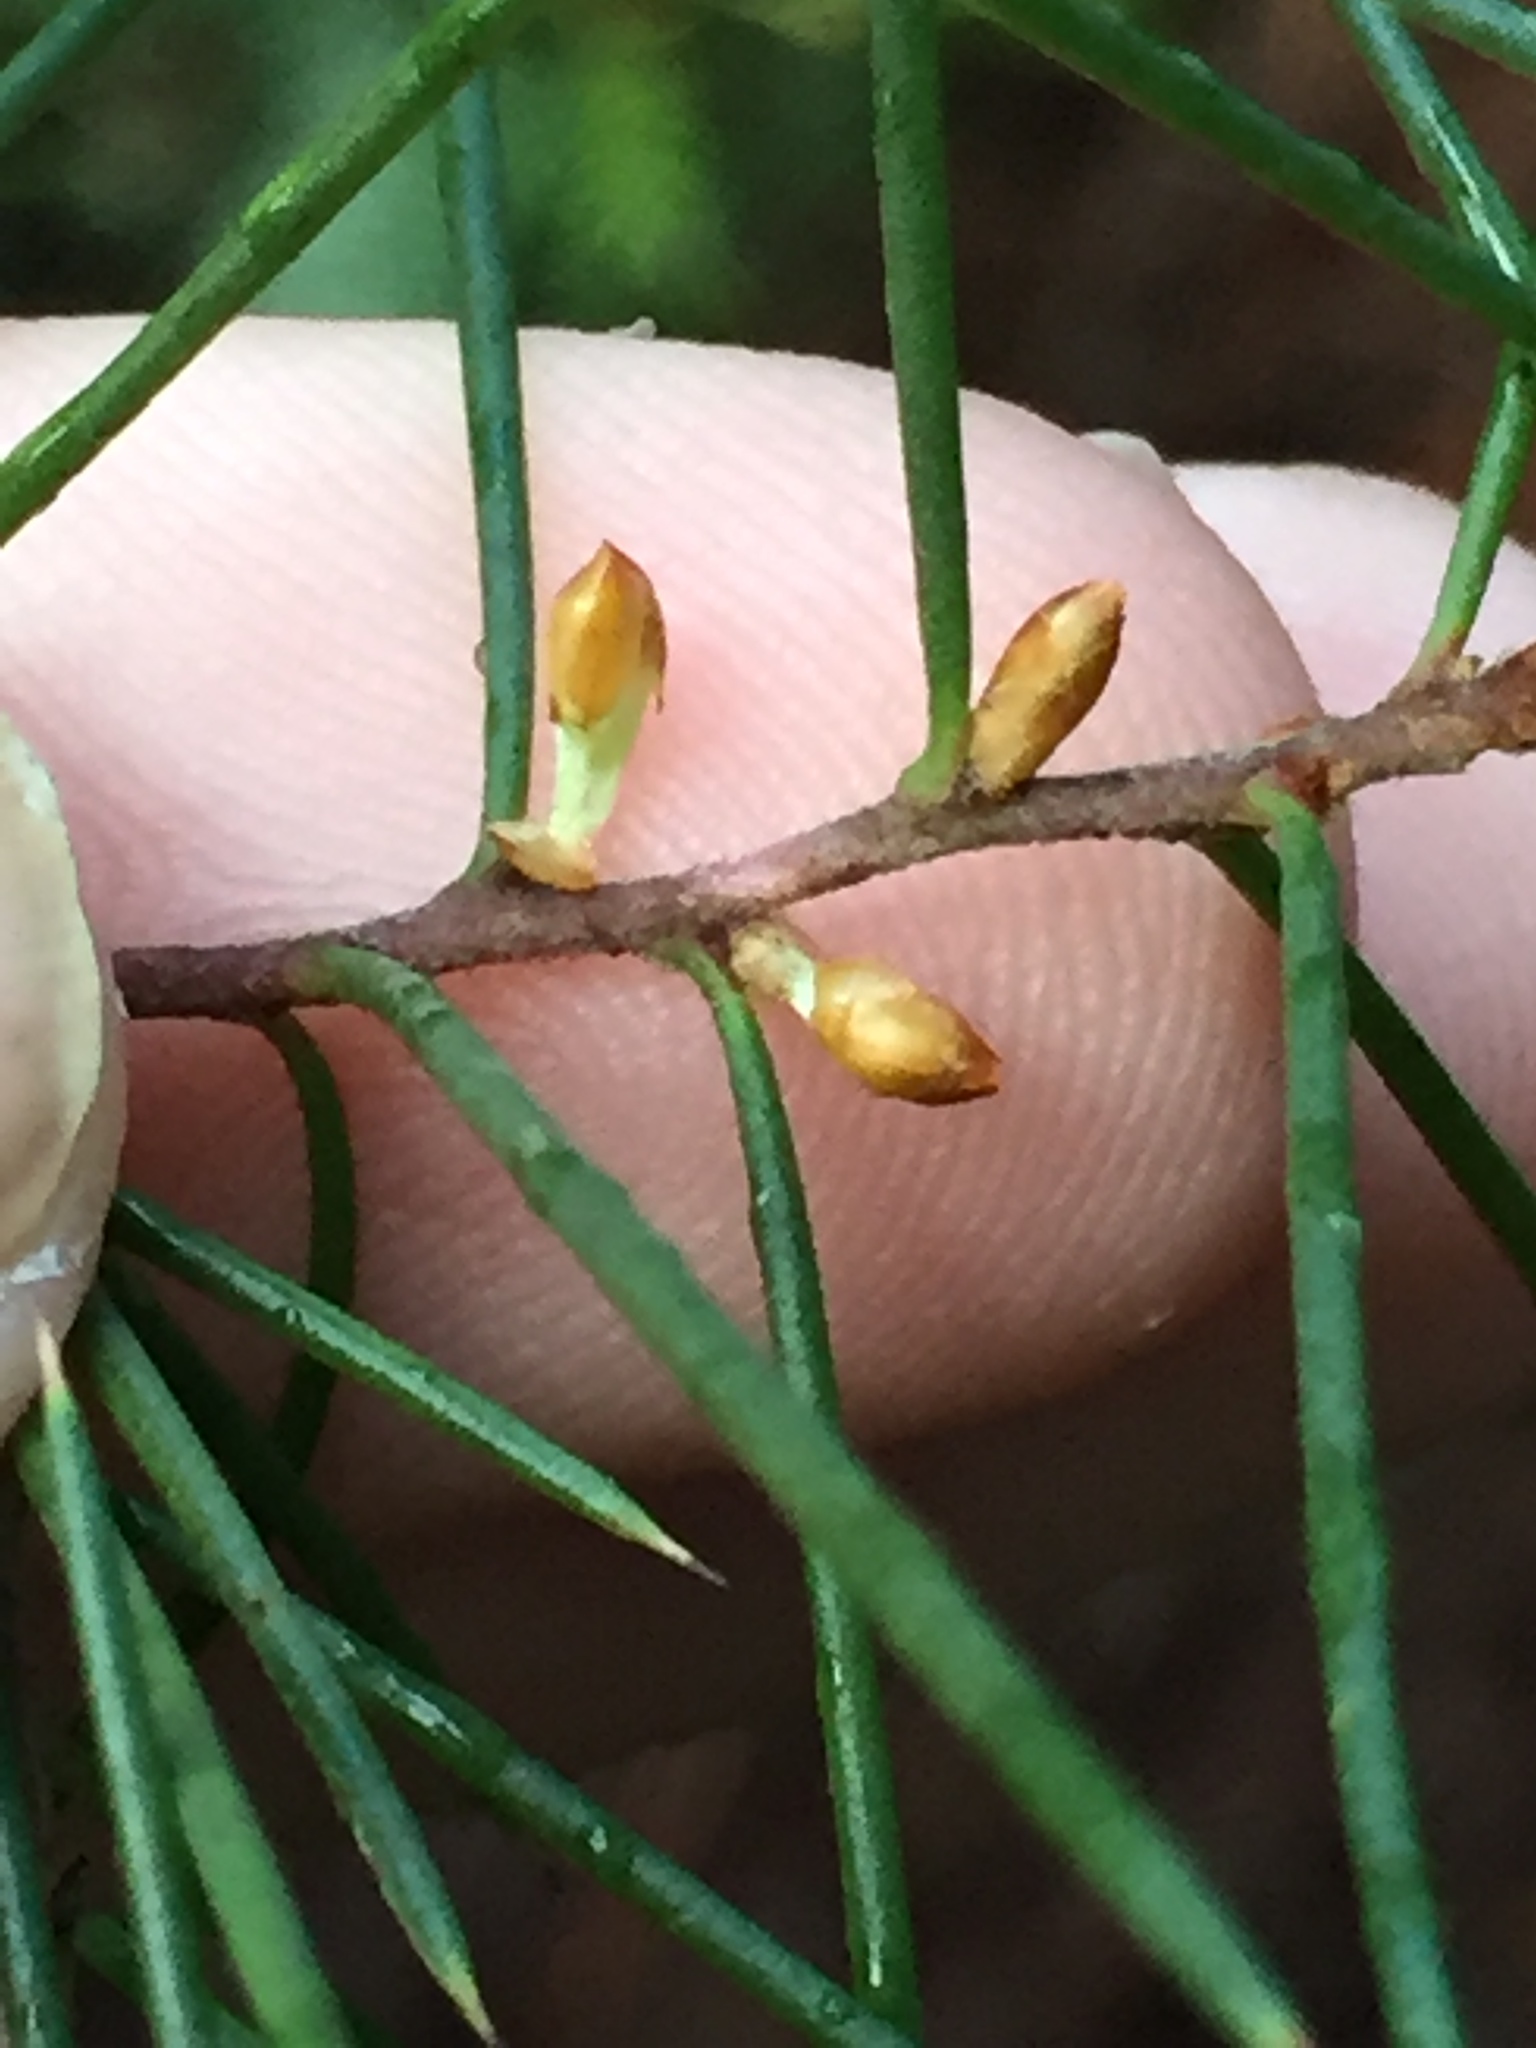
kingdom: Plantae
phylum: Tracheophyta
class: Magnoliopsida
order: Proteales
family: Proteaceae
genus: Hakea
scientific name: Hakea sericea
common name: Needle bush
